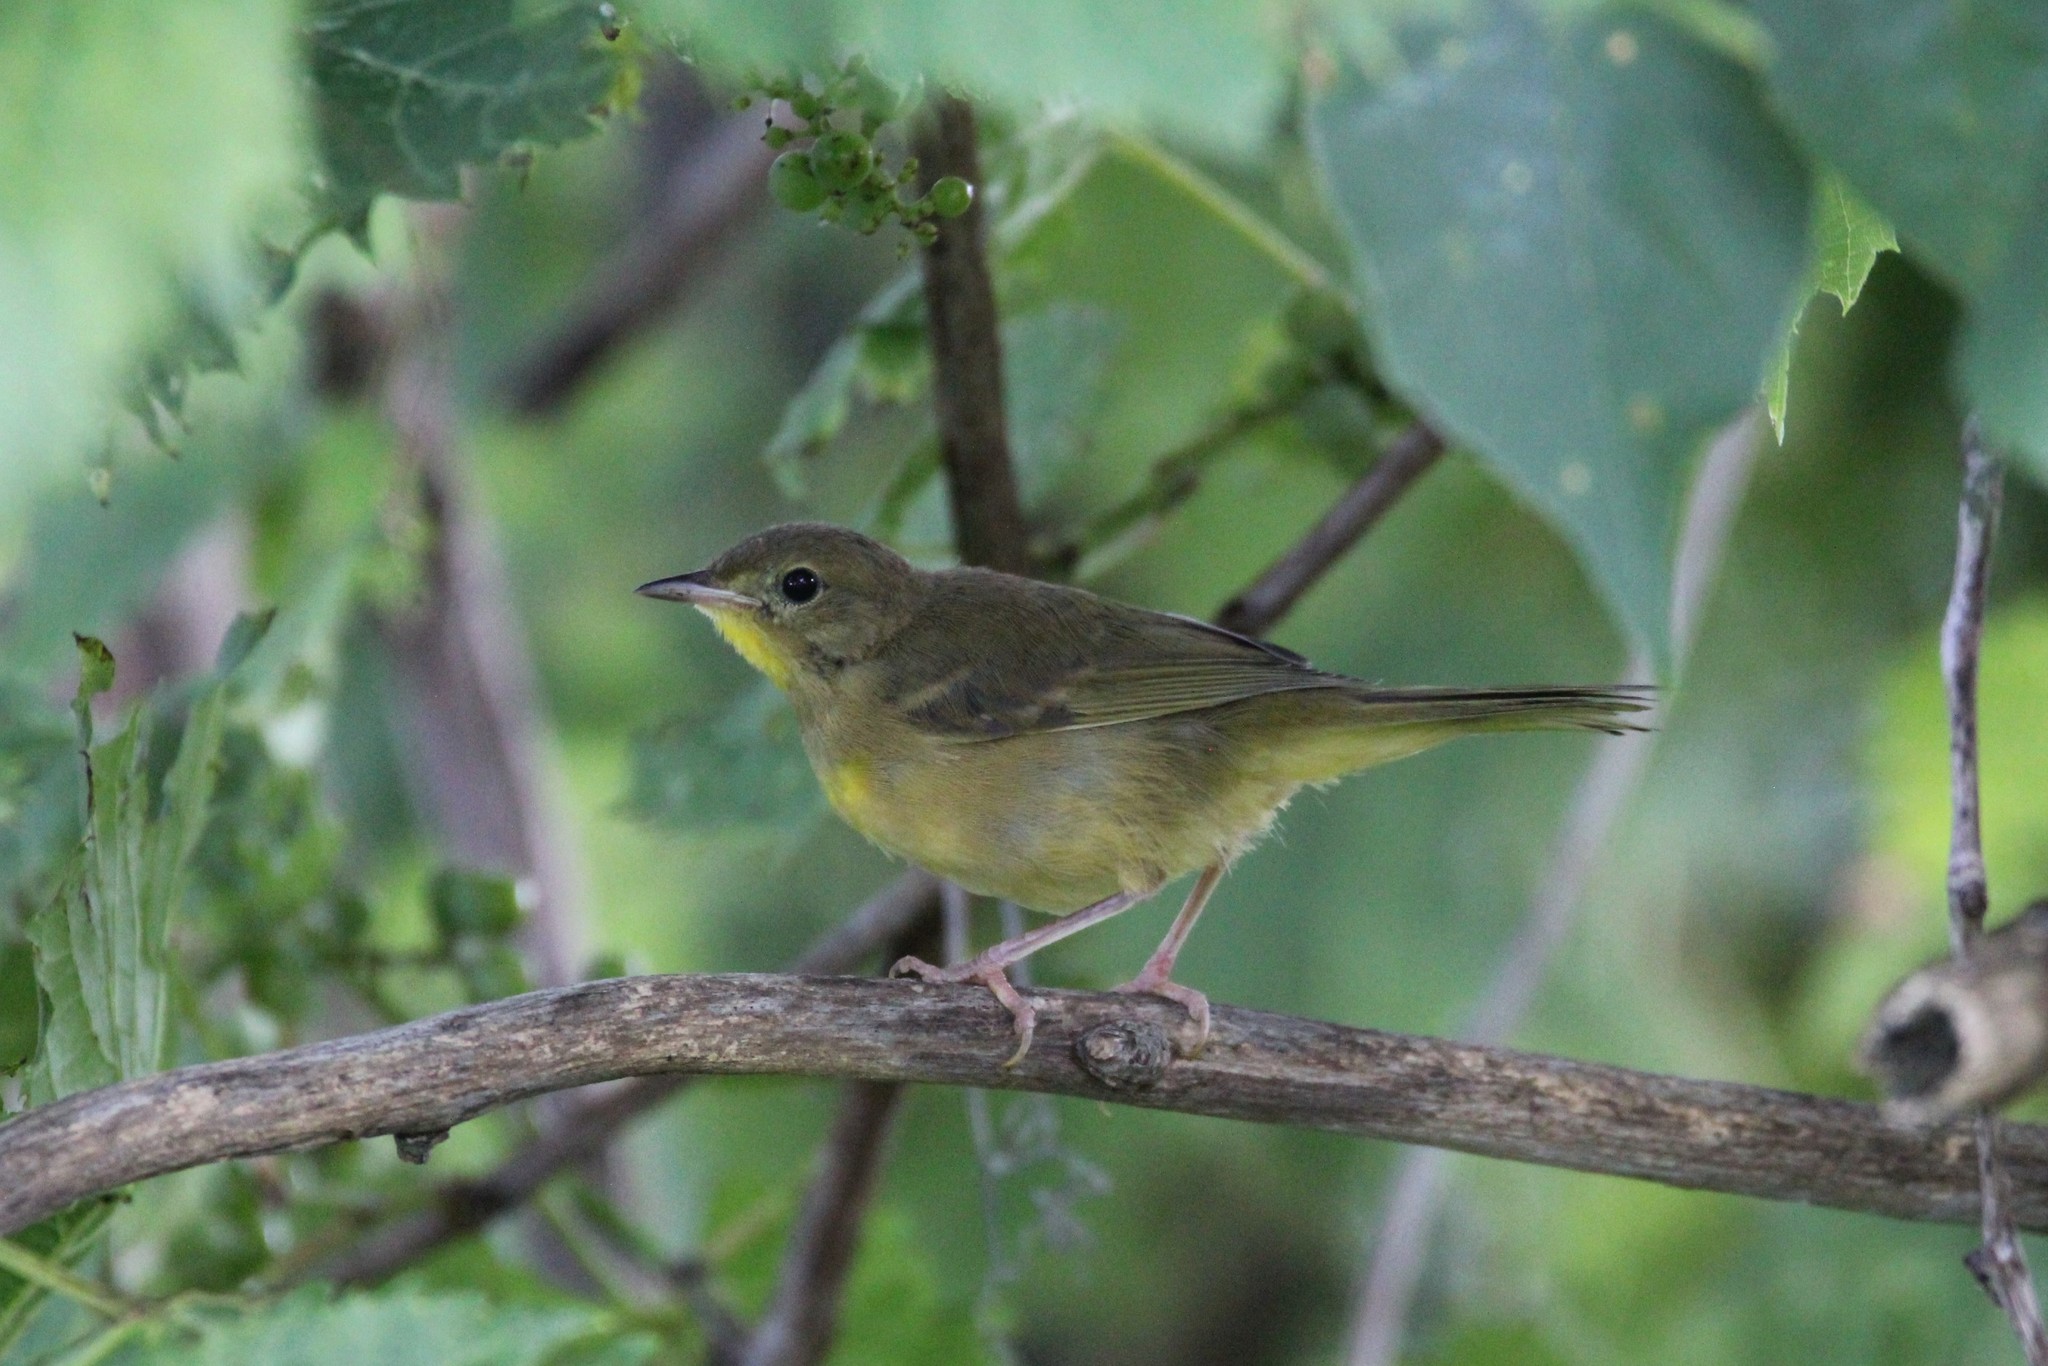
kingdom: Animalia
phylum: Chordata
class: Aves
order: Passeriformes
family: Parulidae
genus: Geothlypis
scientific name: Geothlypis trichas
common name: Common yellowthroat
